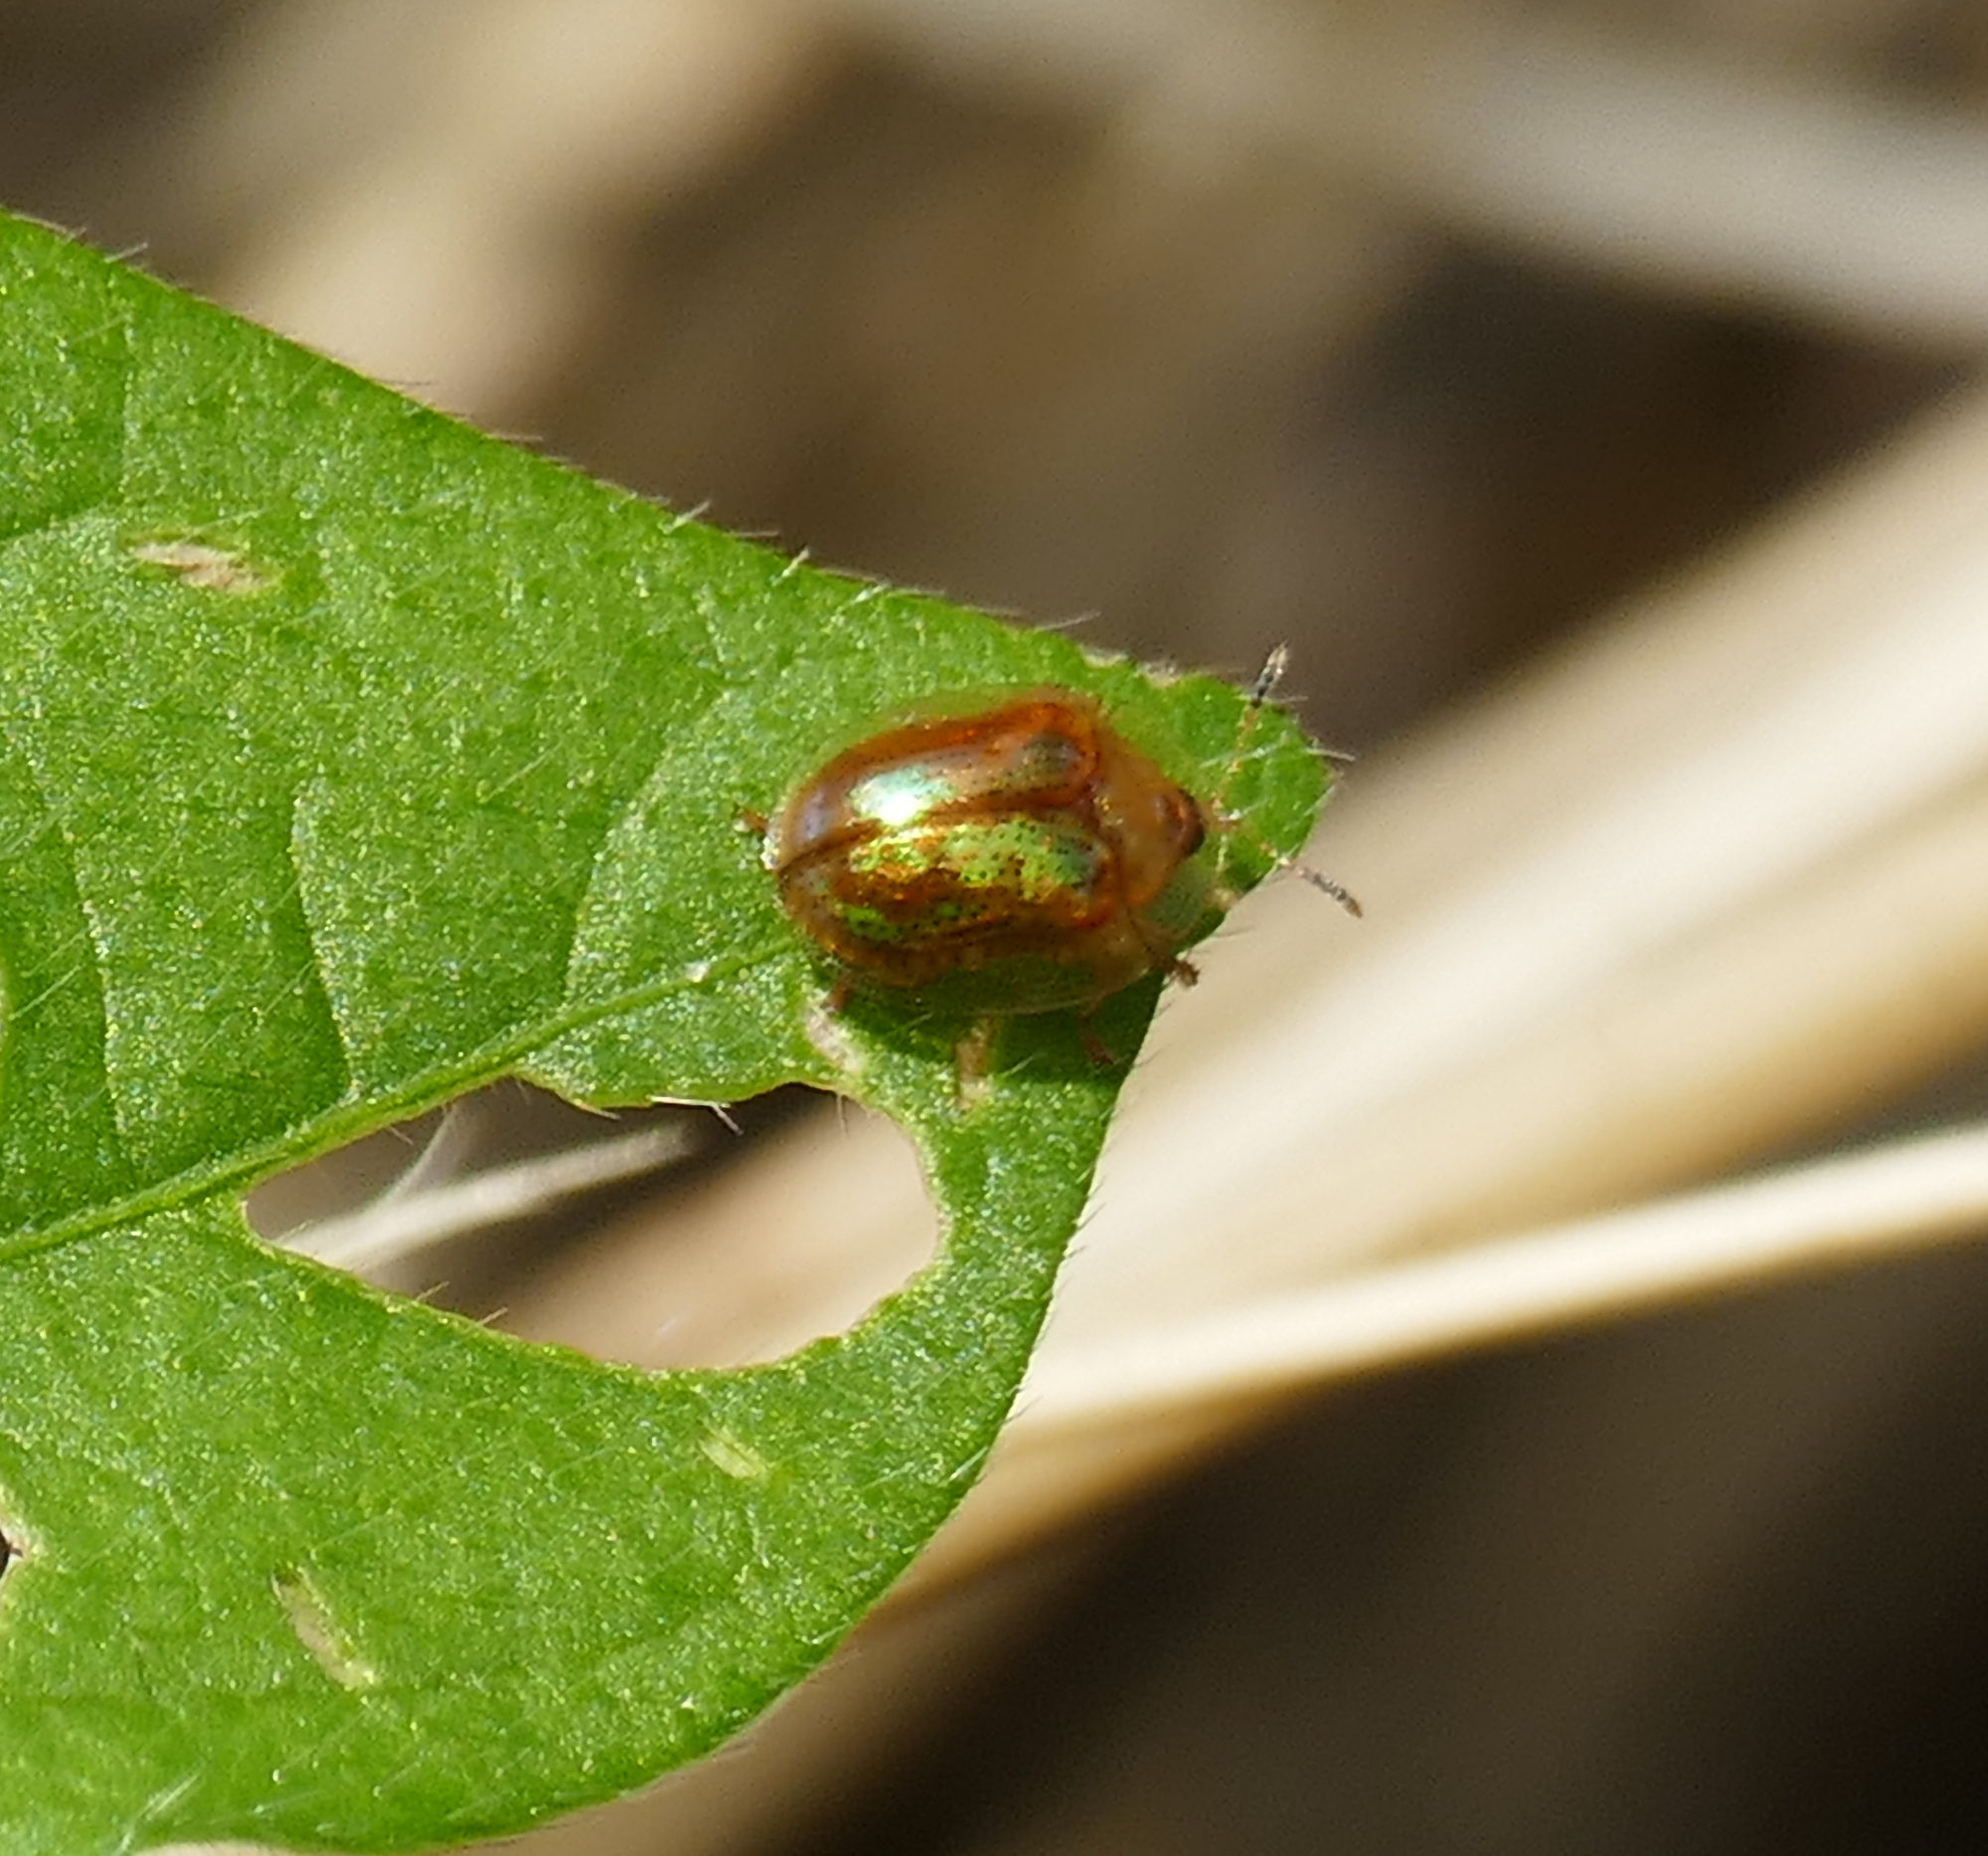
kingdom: Animalia
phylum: Arthropoda
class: Insecta
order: Coleoptera
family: Chrysomelidae
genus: Metrionella
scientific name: Metrionella bilimeki
